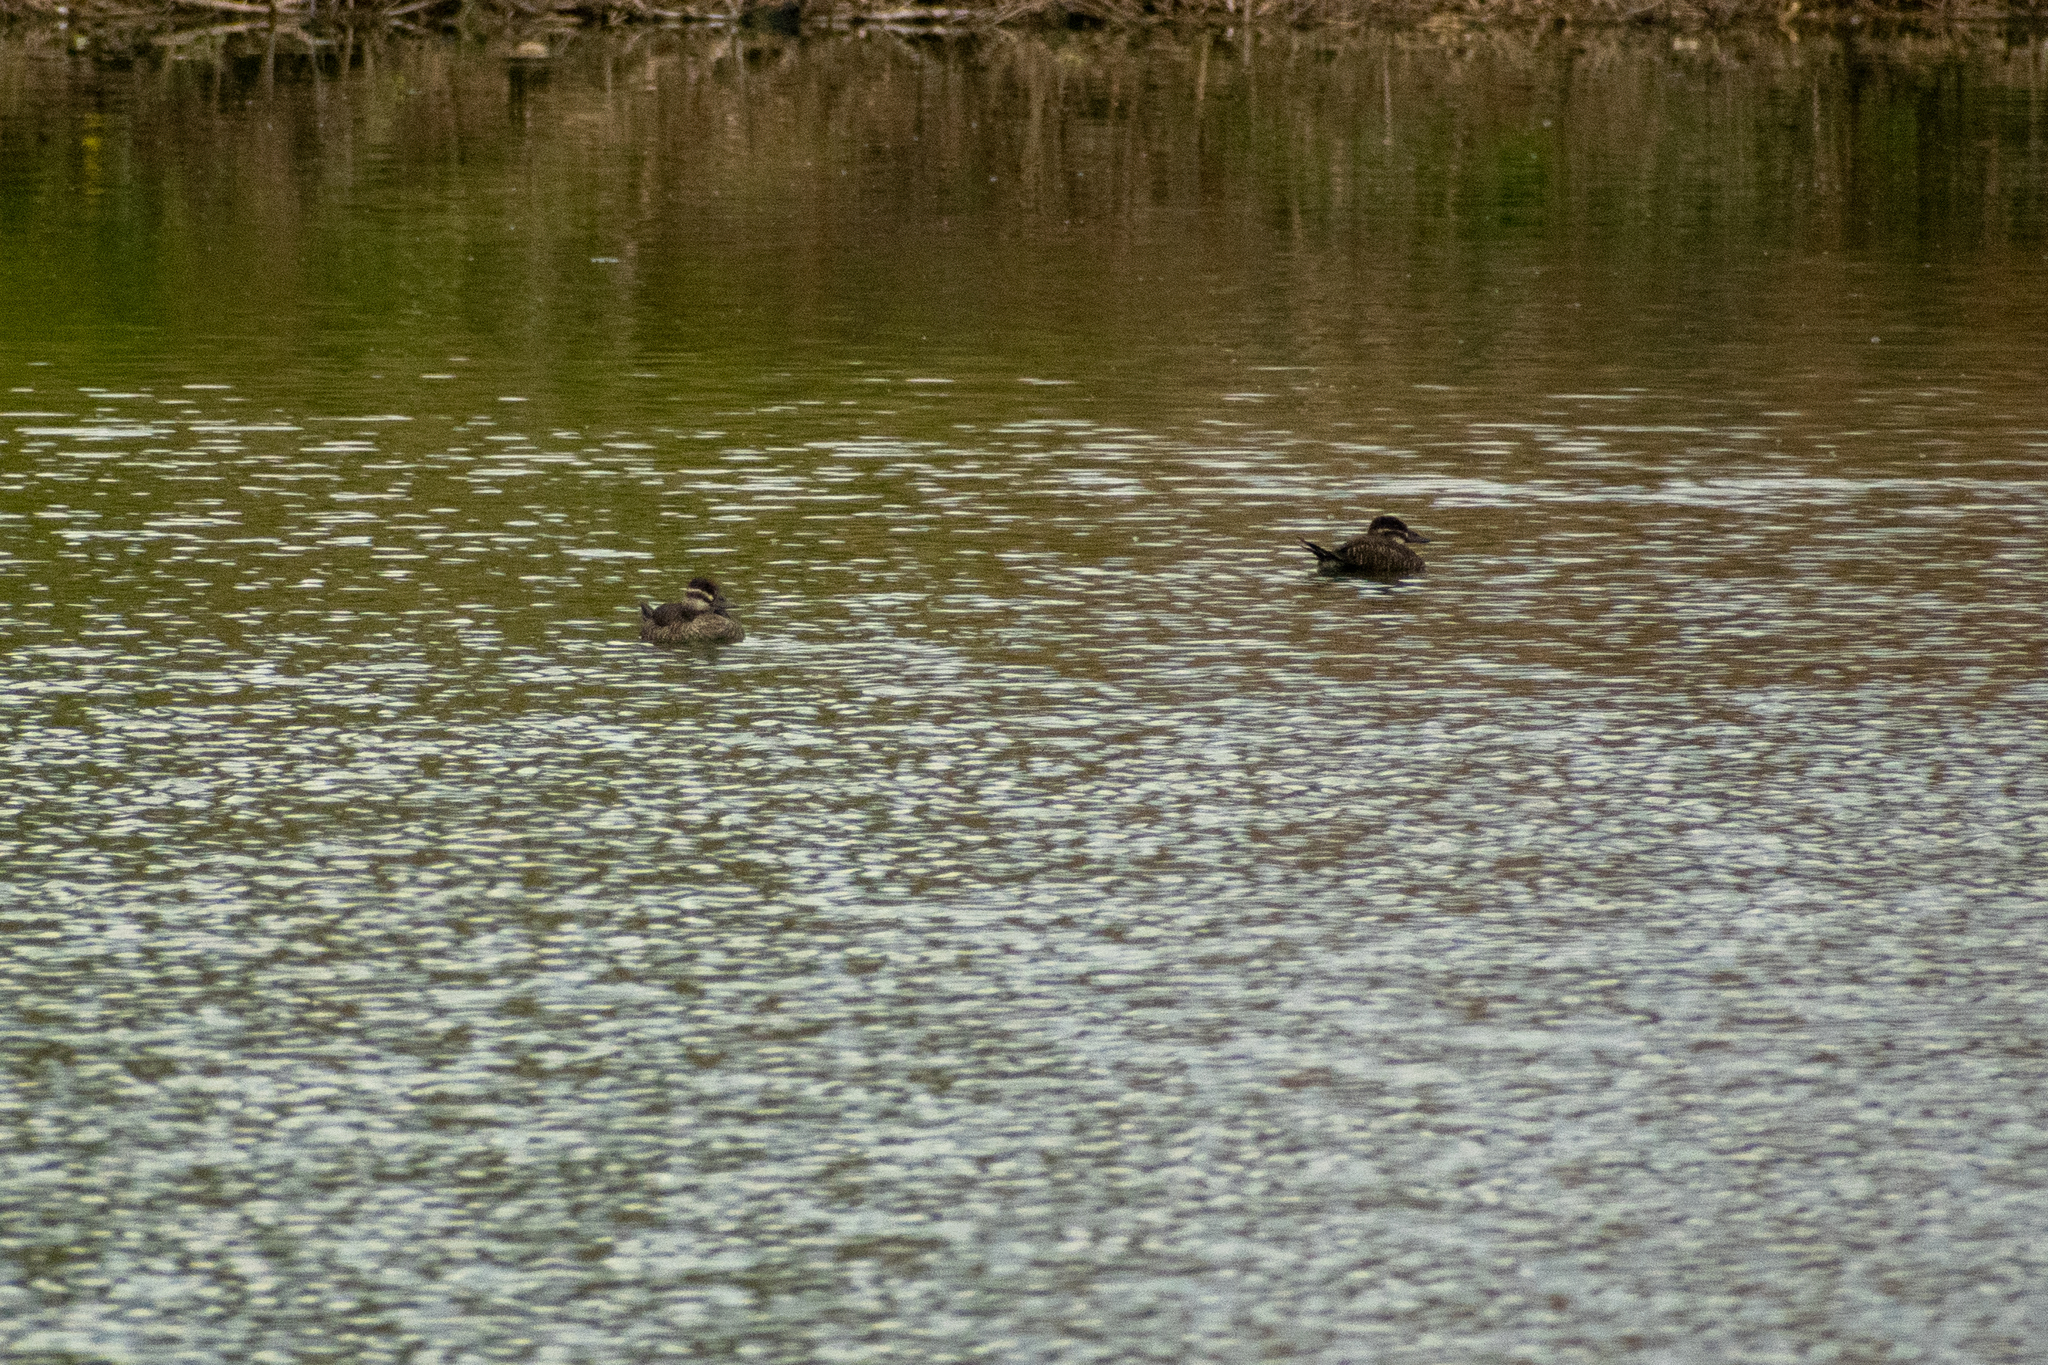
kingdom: Animalia
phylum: Chordata
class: Aves
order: Anseriformes
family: Anatidae
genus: Oxyura
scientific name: Oxyura vittata
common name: Lake duck
